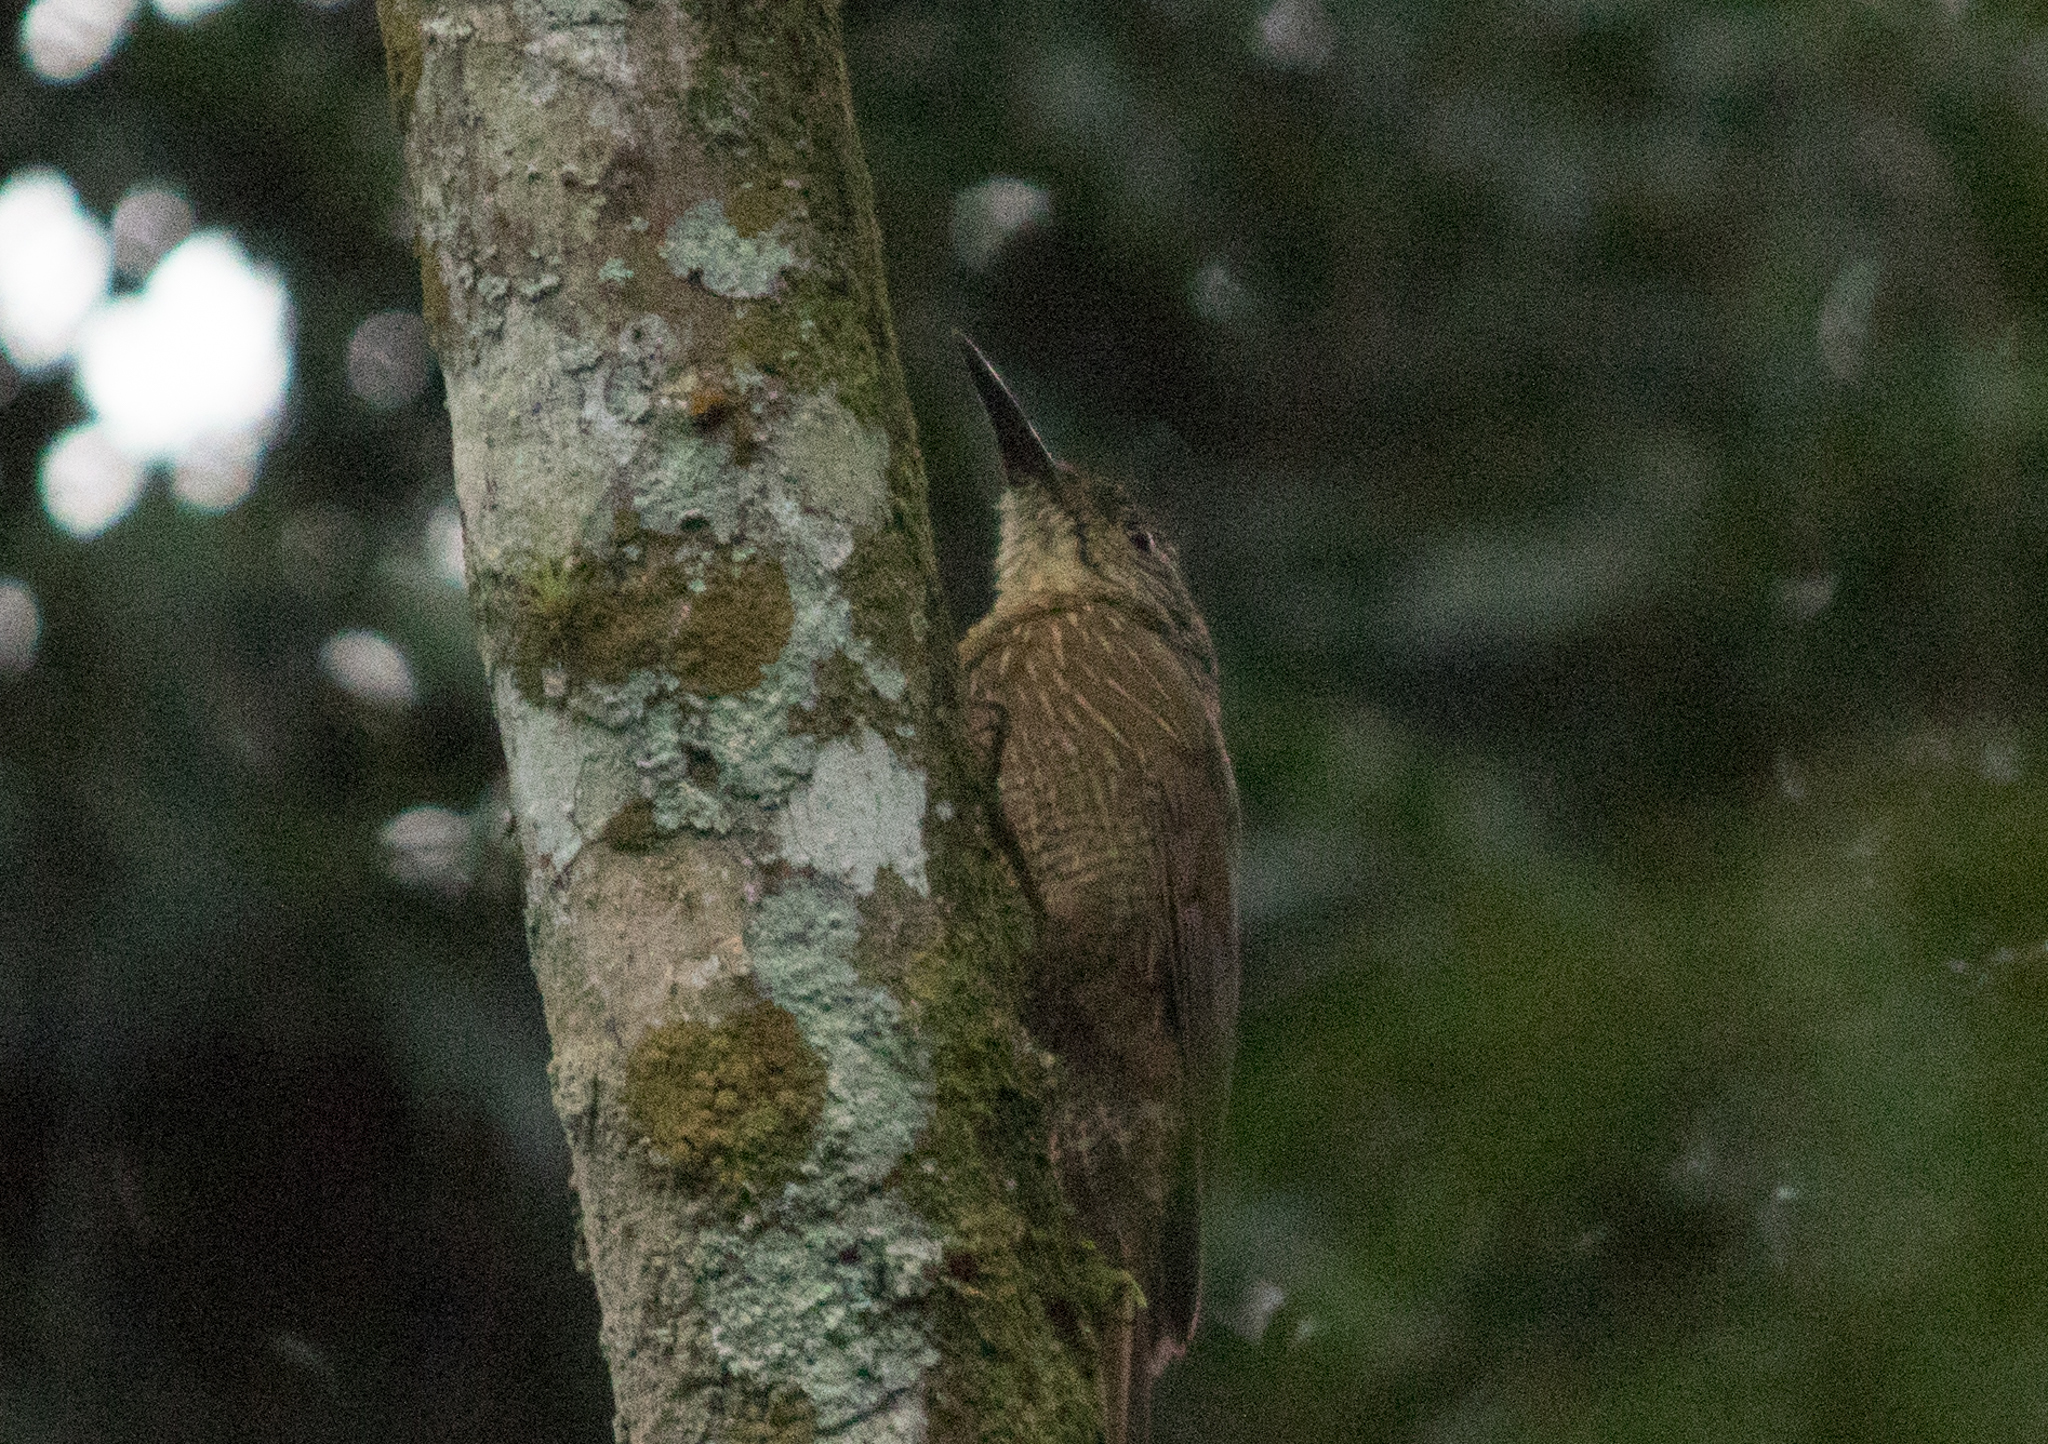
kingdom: Animalia
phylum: Chordata
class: Aves
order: Passeriformes
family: Furnariidae
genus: Dendrocolaptes
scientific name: Dendrocolaptes platyrostris
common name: Planalto woodcreeper
